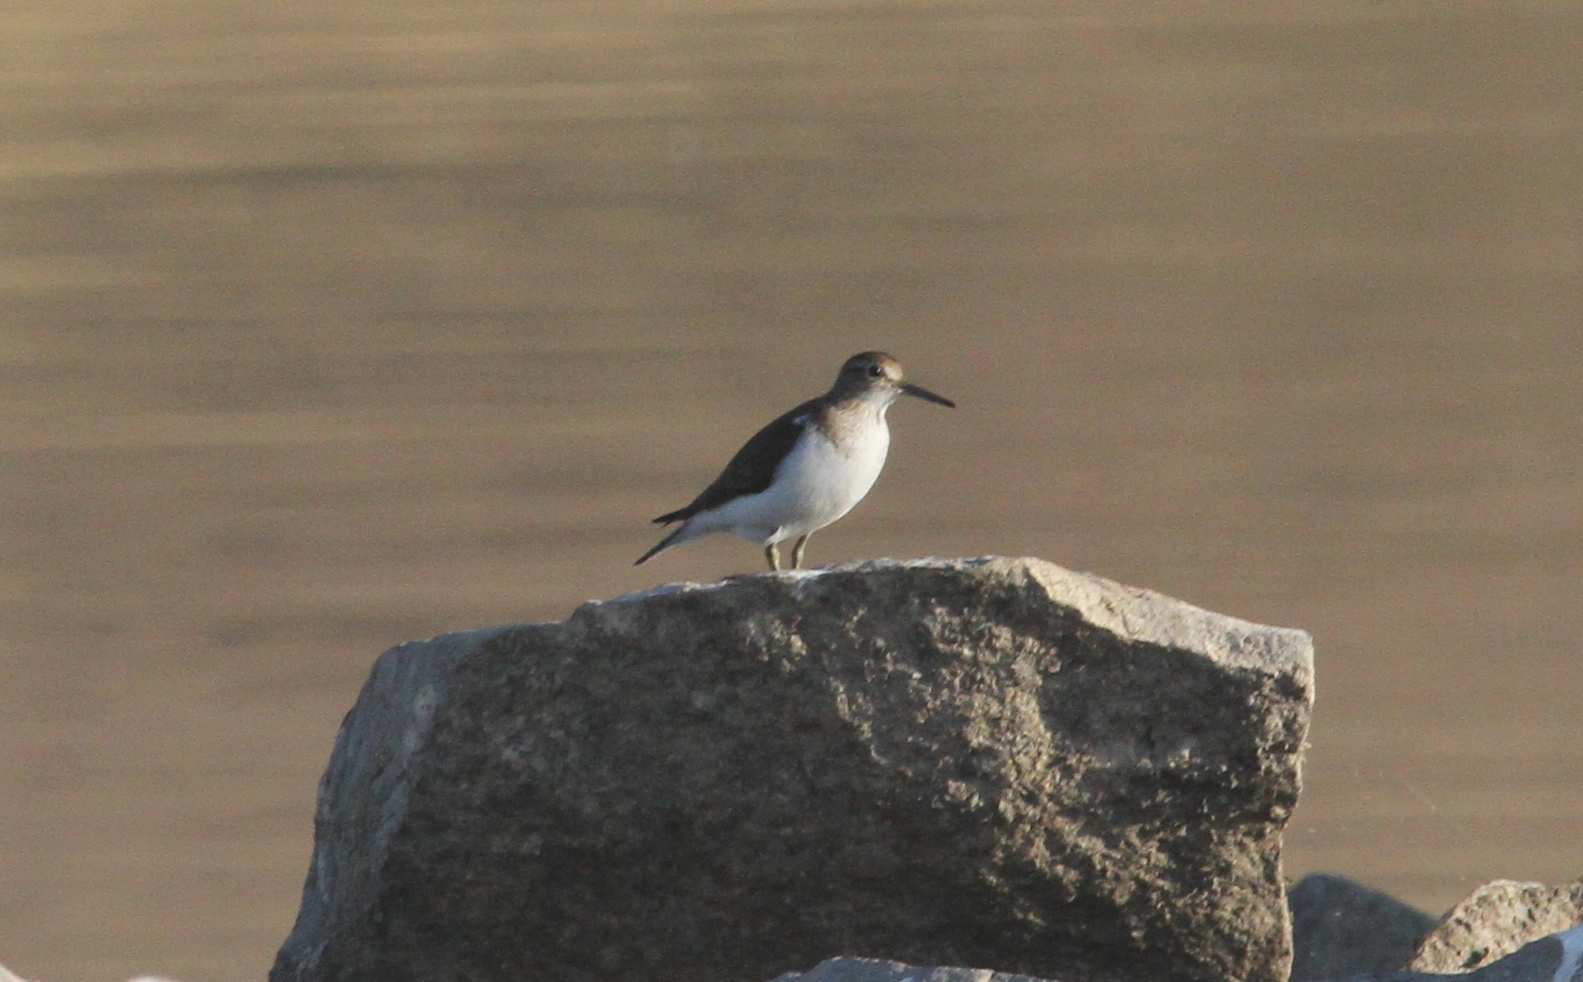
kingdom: Animalia
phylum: Chordata
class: Aves
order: Charadriiformes
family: Scolopacidae
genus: Actitis
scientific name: Actitis hypoleucos
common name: Common sandpiper
